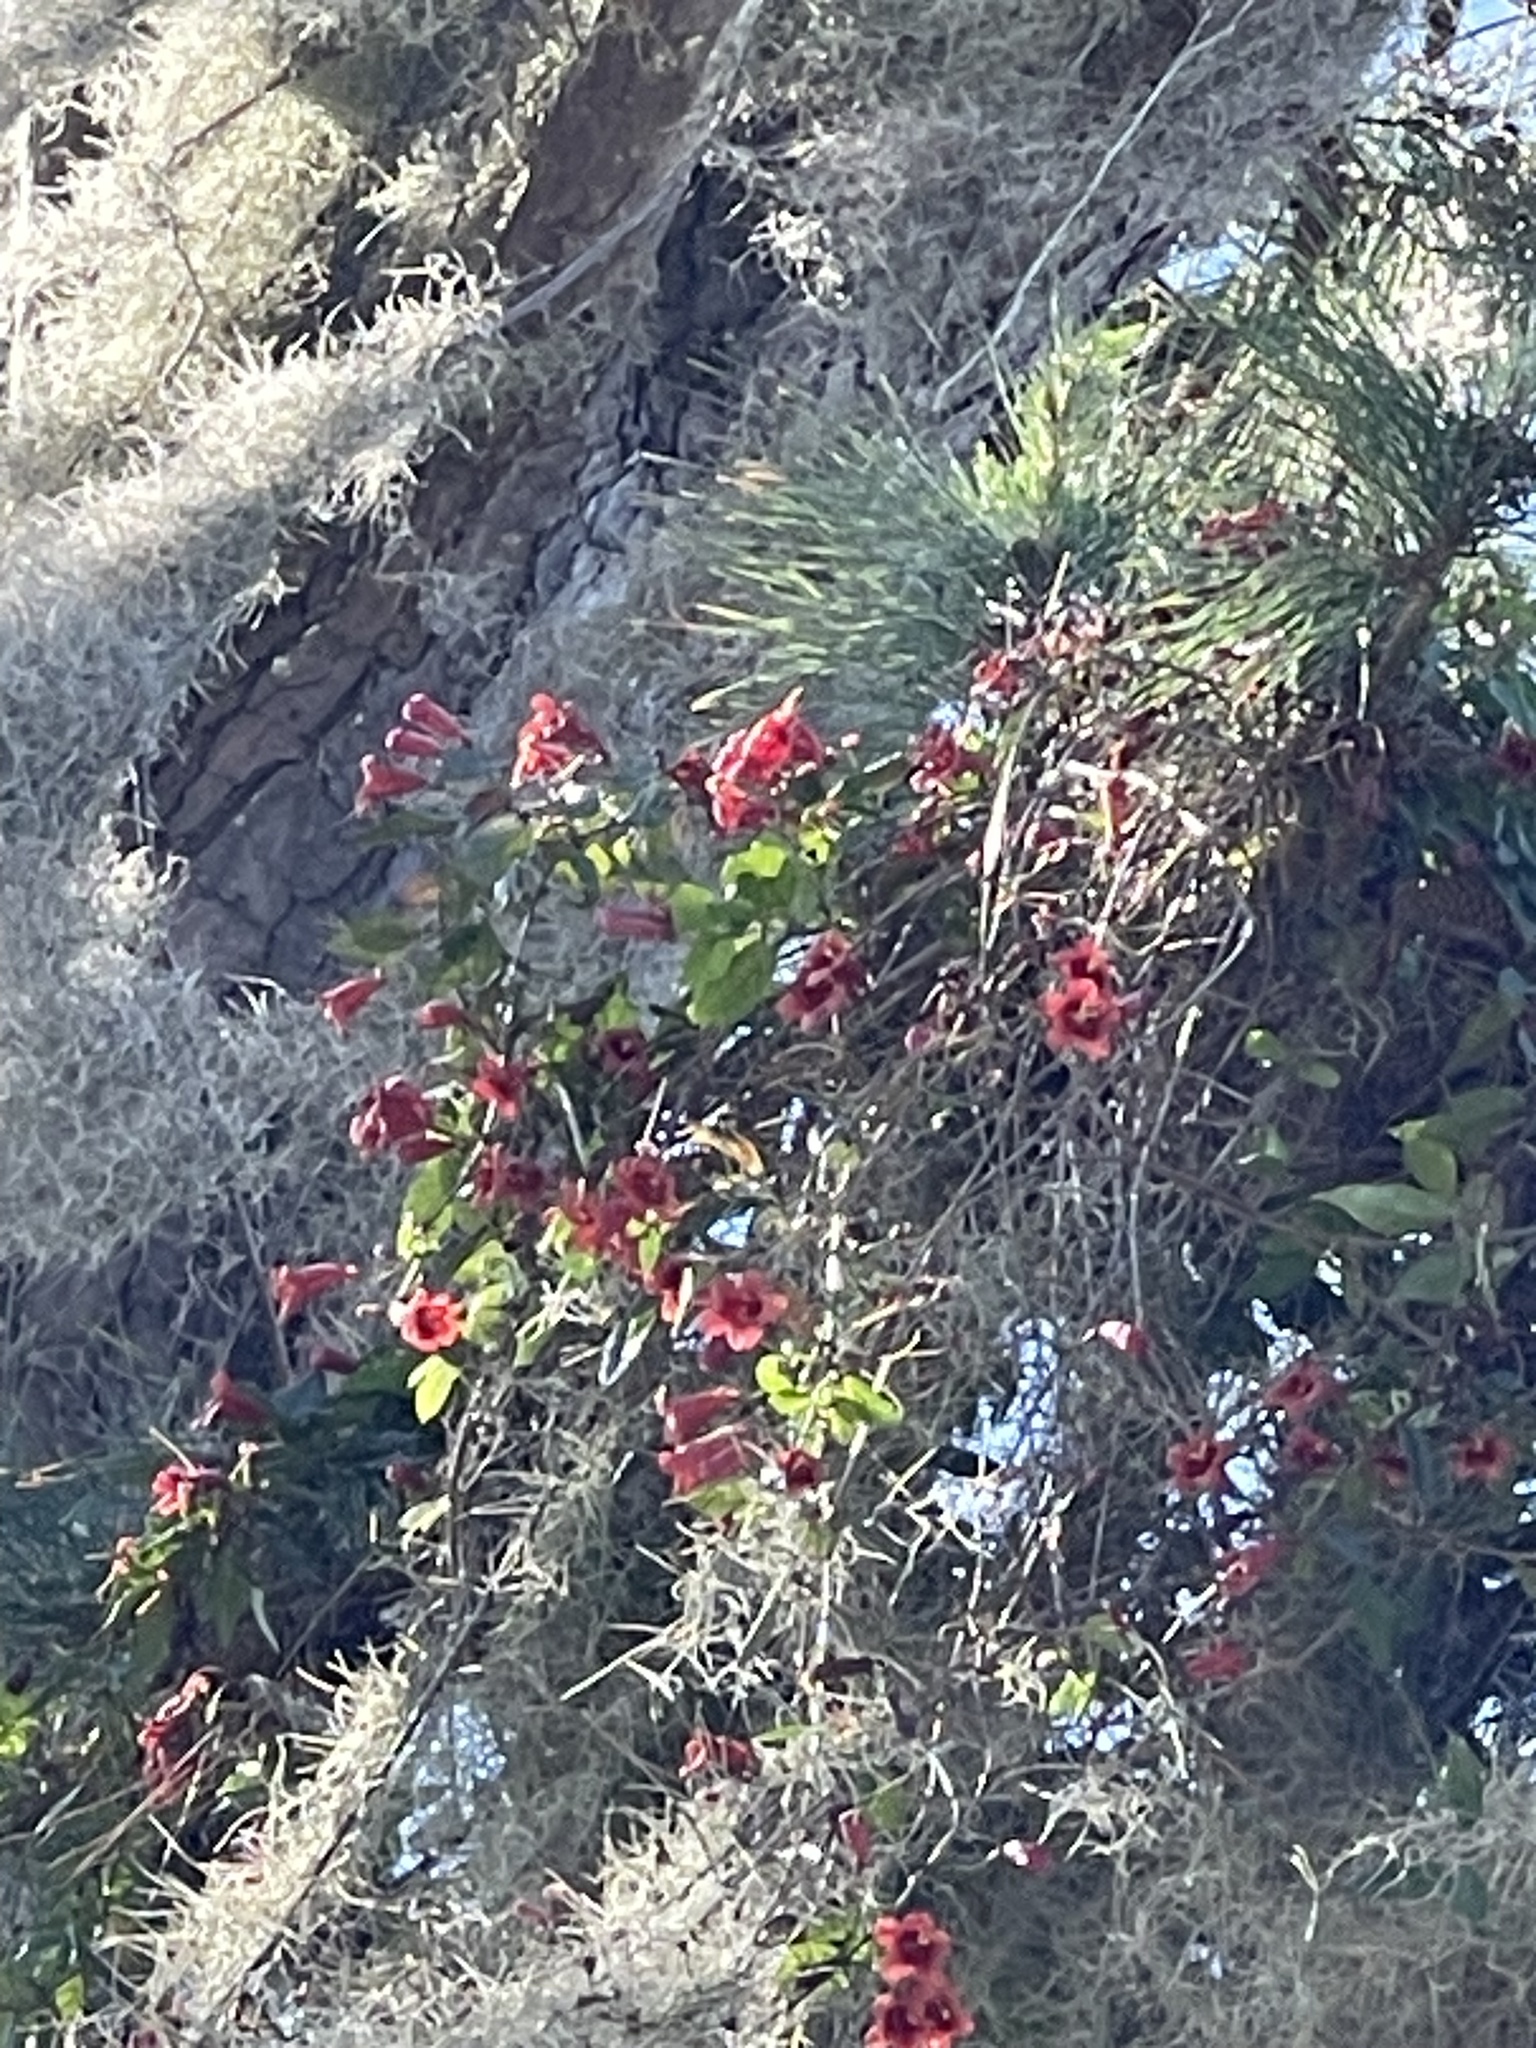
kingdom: Plantae
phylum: Tracheophyta
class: Magnoliopsida
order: Lamiales
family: Bignoniaceae
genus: Bignonia
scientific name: Bignonia capreolata
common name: Crossvine
